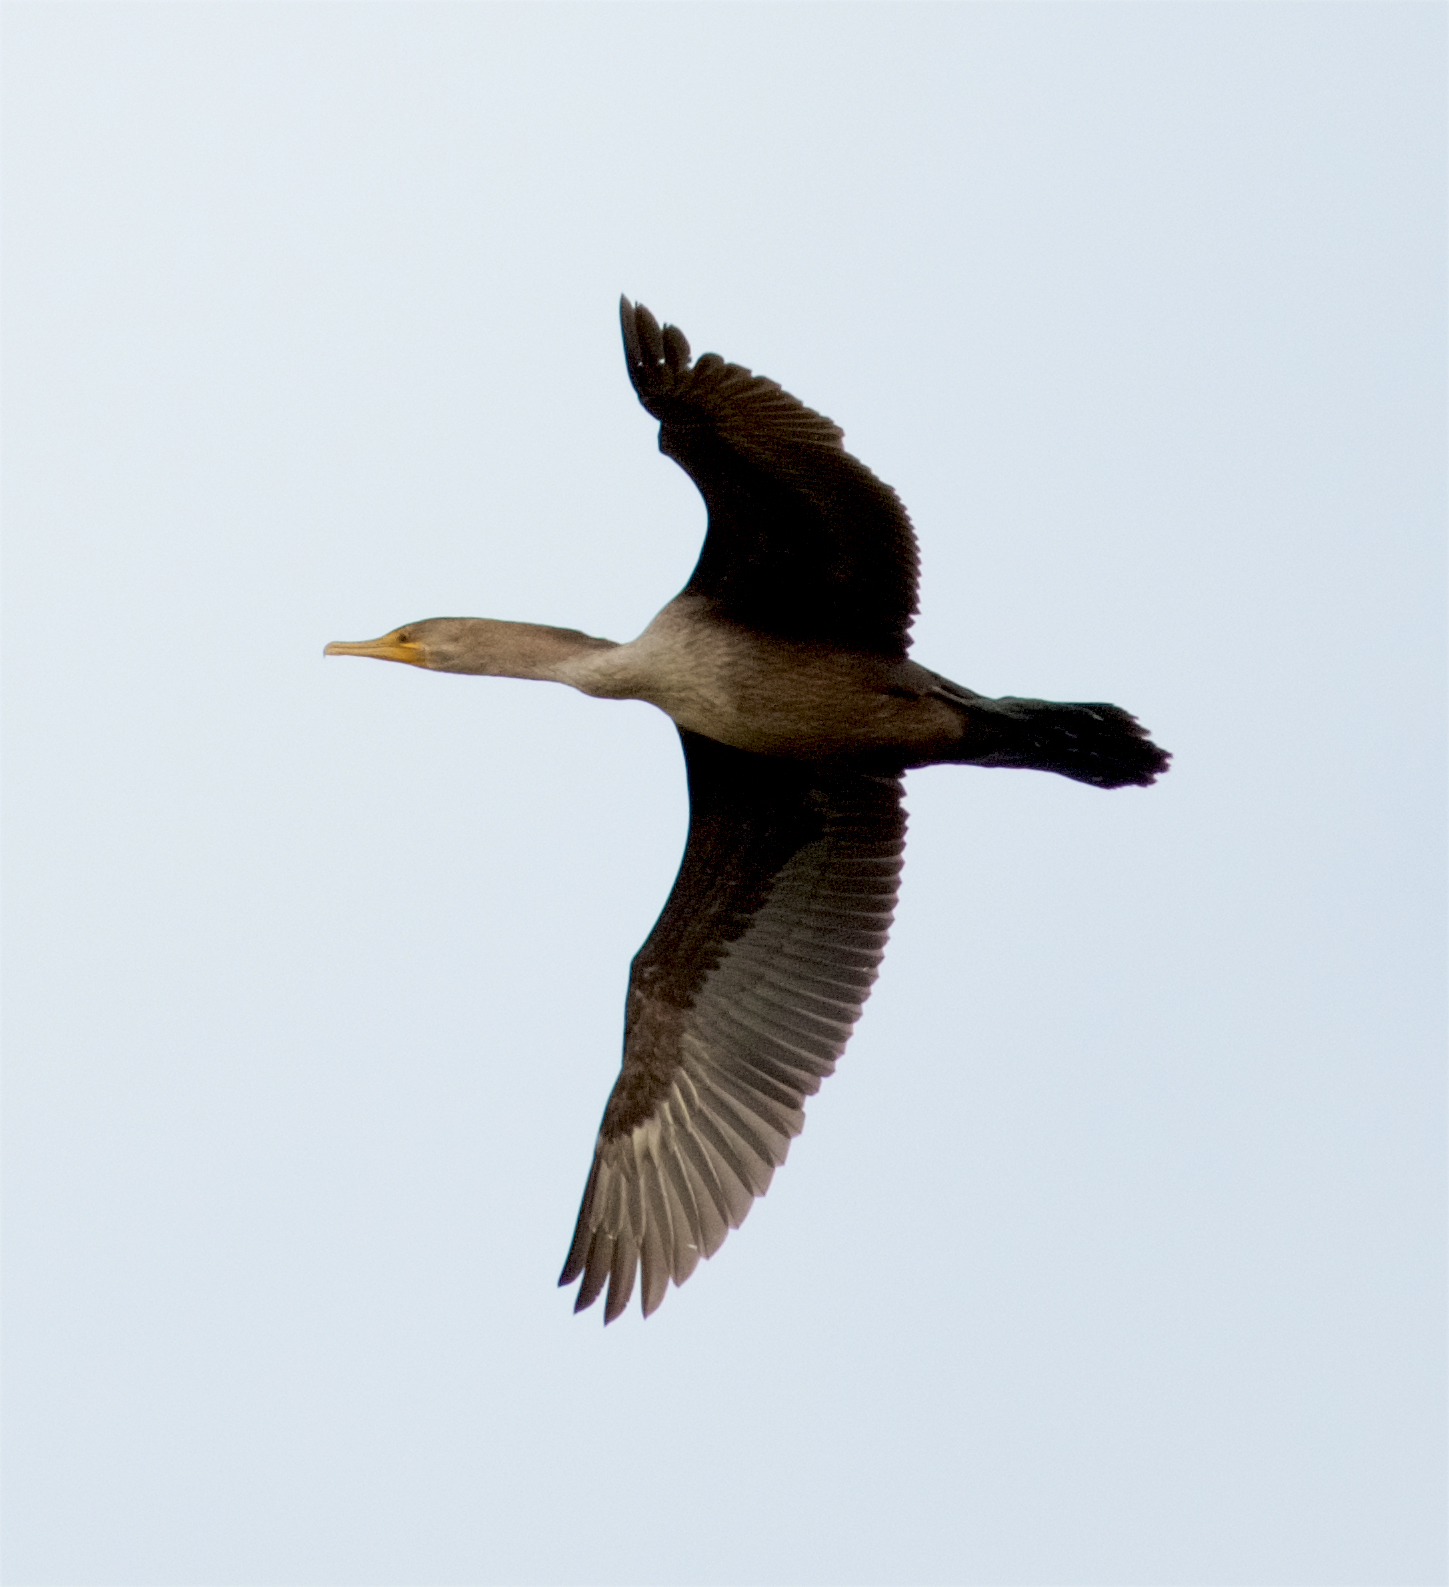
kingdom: Animalia
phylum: Chordata
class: Aves
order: Suliformes
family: Phalacrocoracidae
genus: Phalacrocorax
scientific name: Phalacrocorax auritus
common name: Double-crested cormorant
